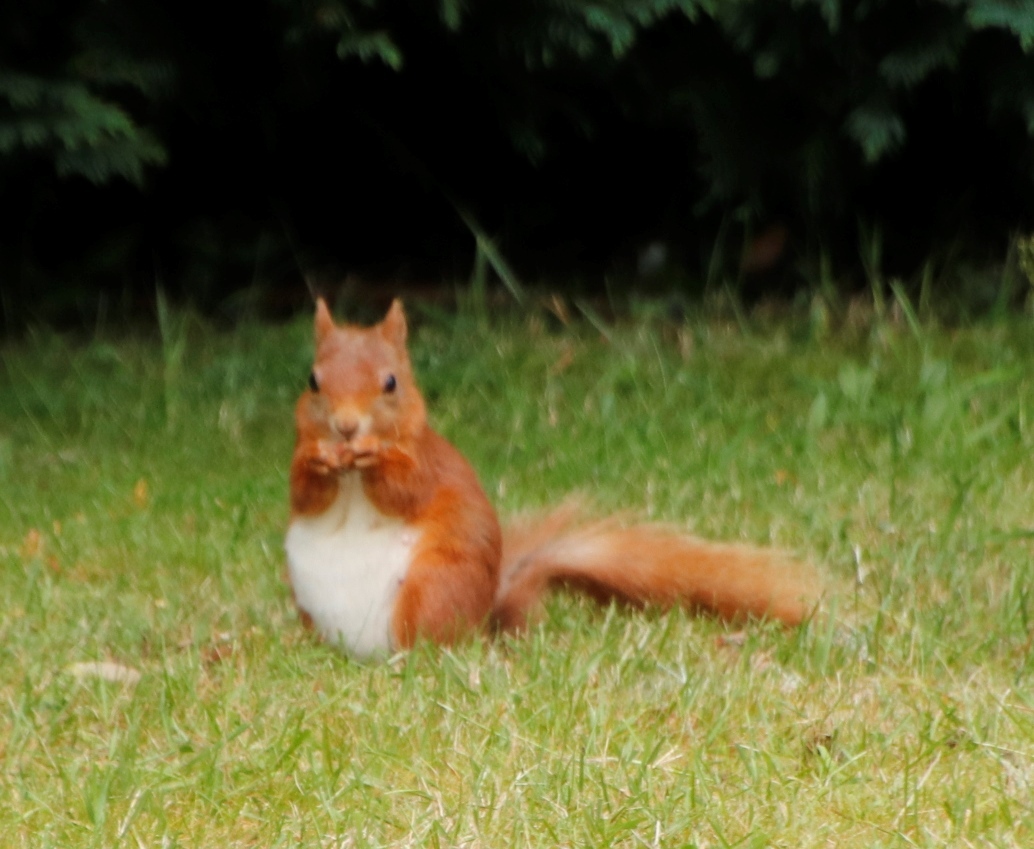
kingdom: Animalia
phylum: Chordata
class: Mammalia
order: Rodentia
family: Sciuridae
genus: Sciurus
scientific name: Sciurus vulgaris
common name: Eurasian red squirrel
